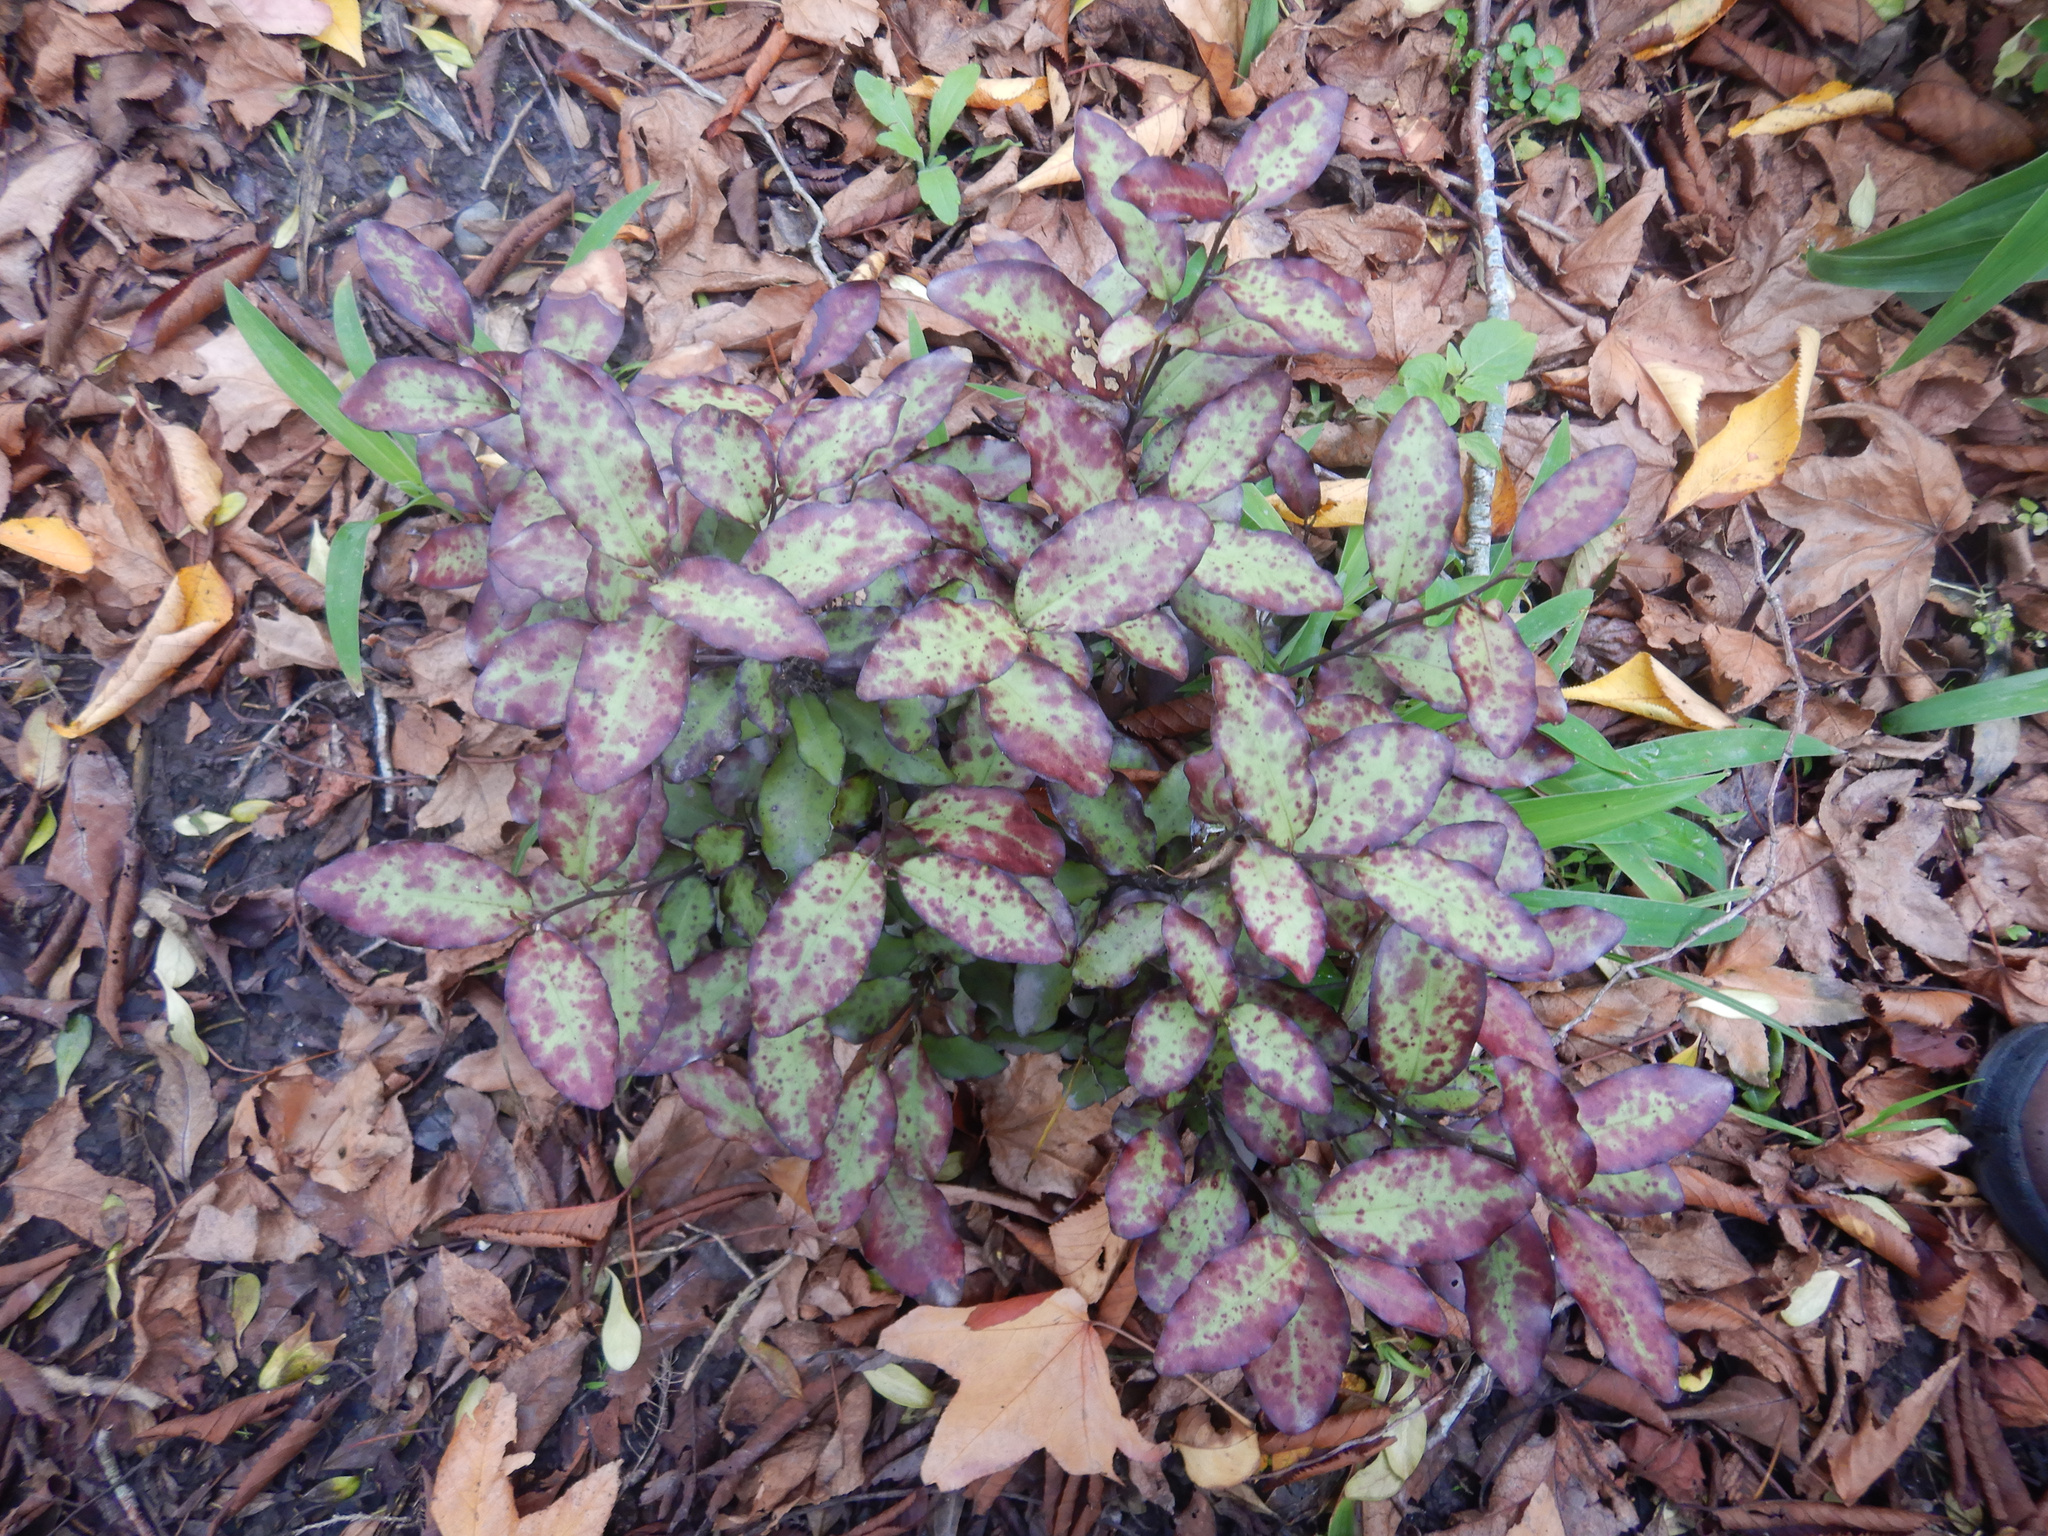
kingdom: Plantae
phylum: Tracheophyta
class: Magnoliopsida
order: Canellales
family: Winteraceae
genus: Pseudowintera
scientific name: Pseudowintera colorata
